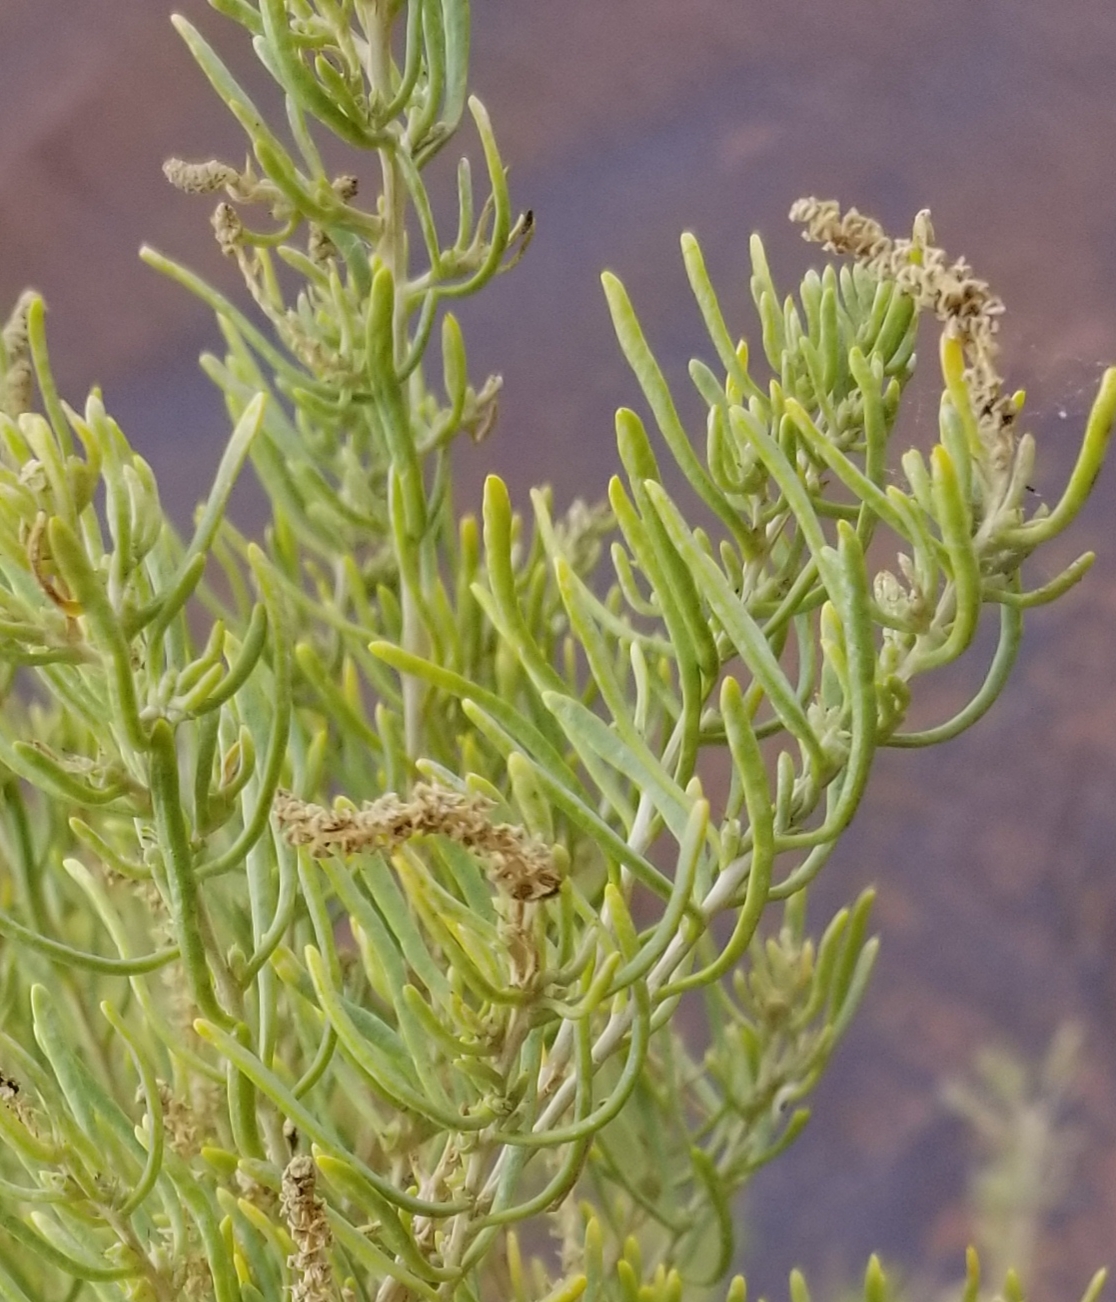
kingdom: Plantae
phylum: Tracheophyta
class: Magnoliopsida
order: Caryophyllales
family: Sarcobataceae
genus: Sarcobatus
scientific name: Sarcobatus vermiculatus
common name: Greasewood
